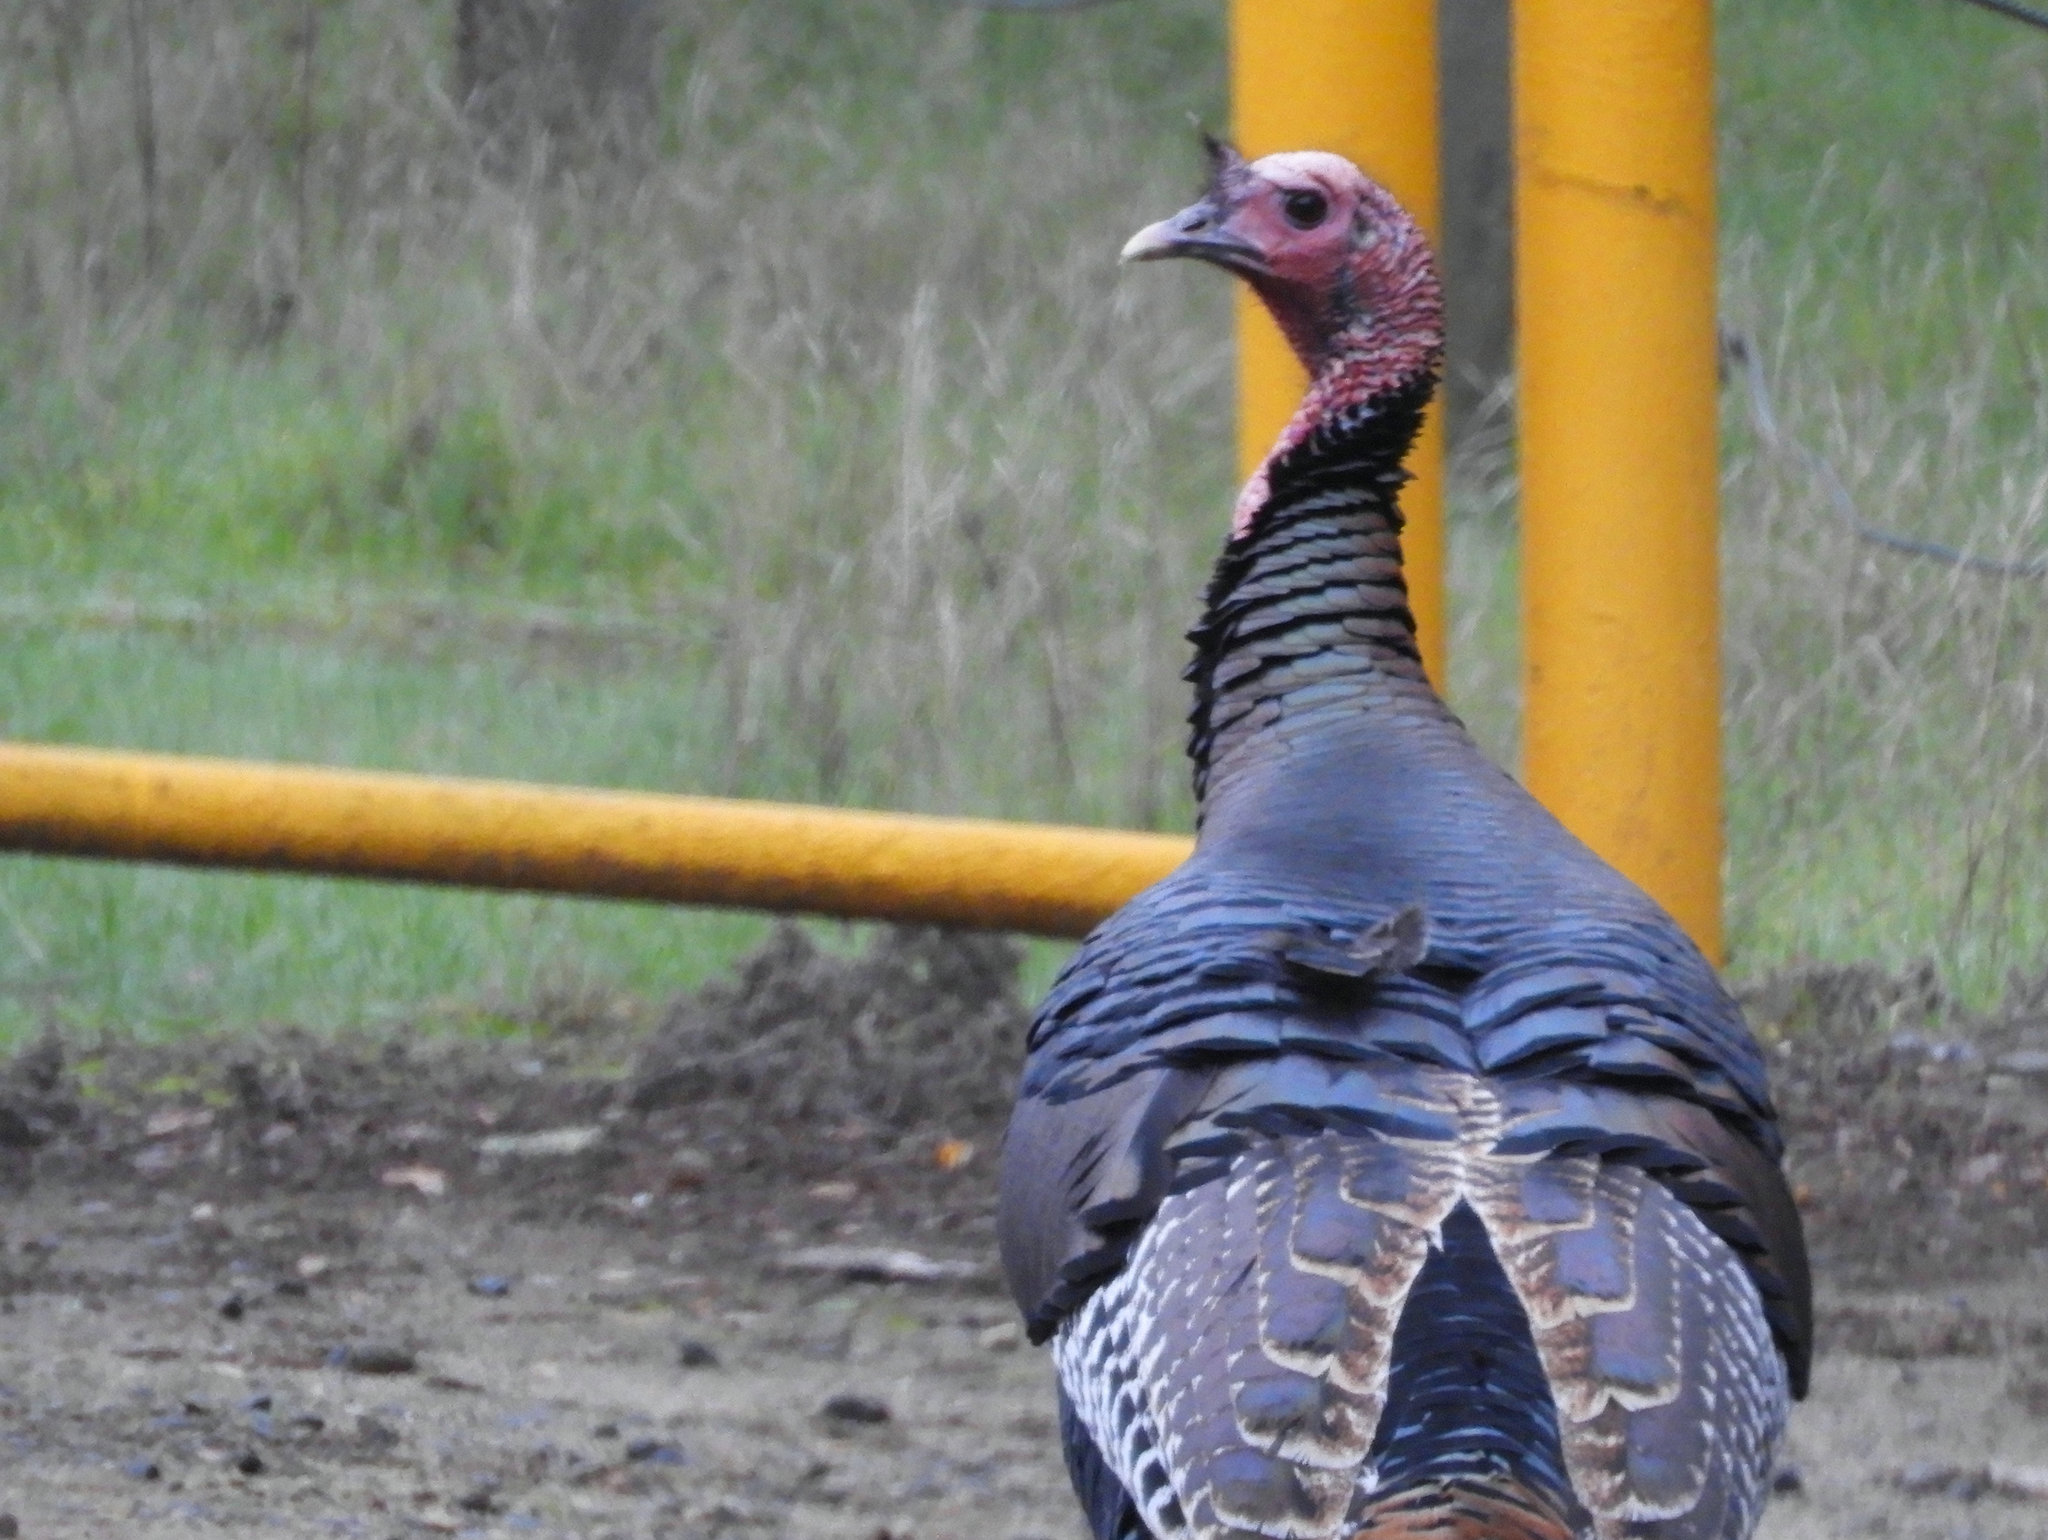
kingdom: Animalia
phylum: Chordata
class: Aves
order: Galliformes
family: Phasianidae
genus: Meleagris
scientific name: Meleagris gallopavo
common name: Wild turkey
